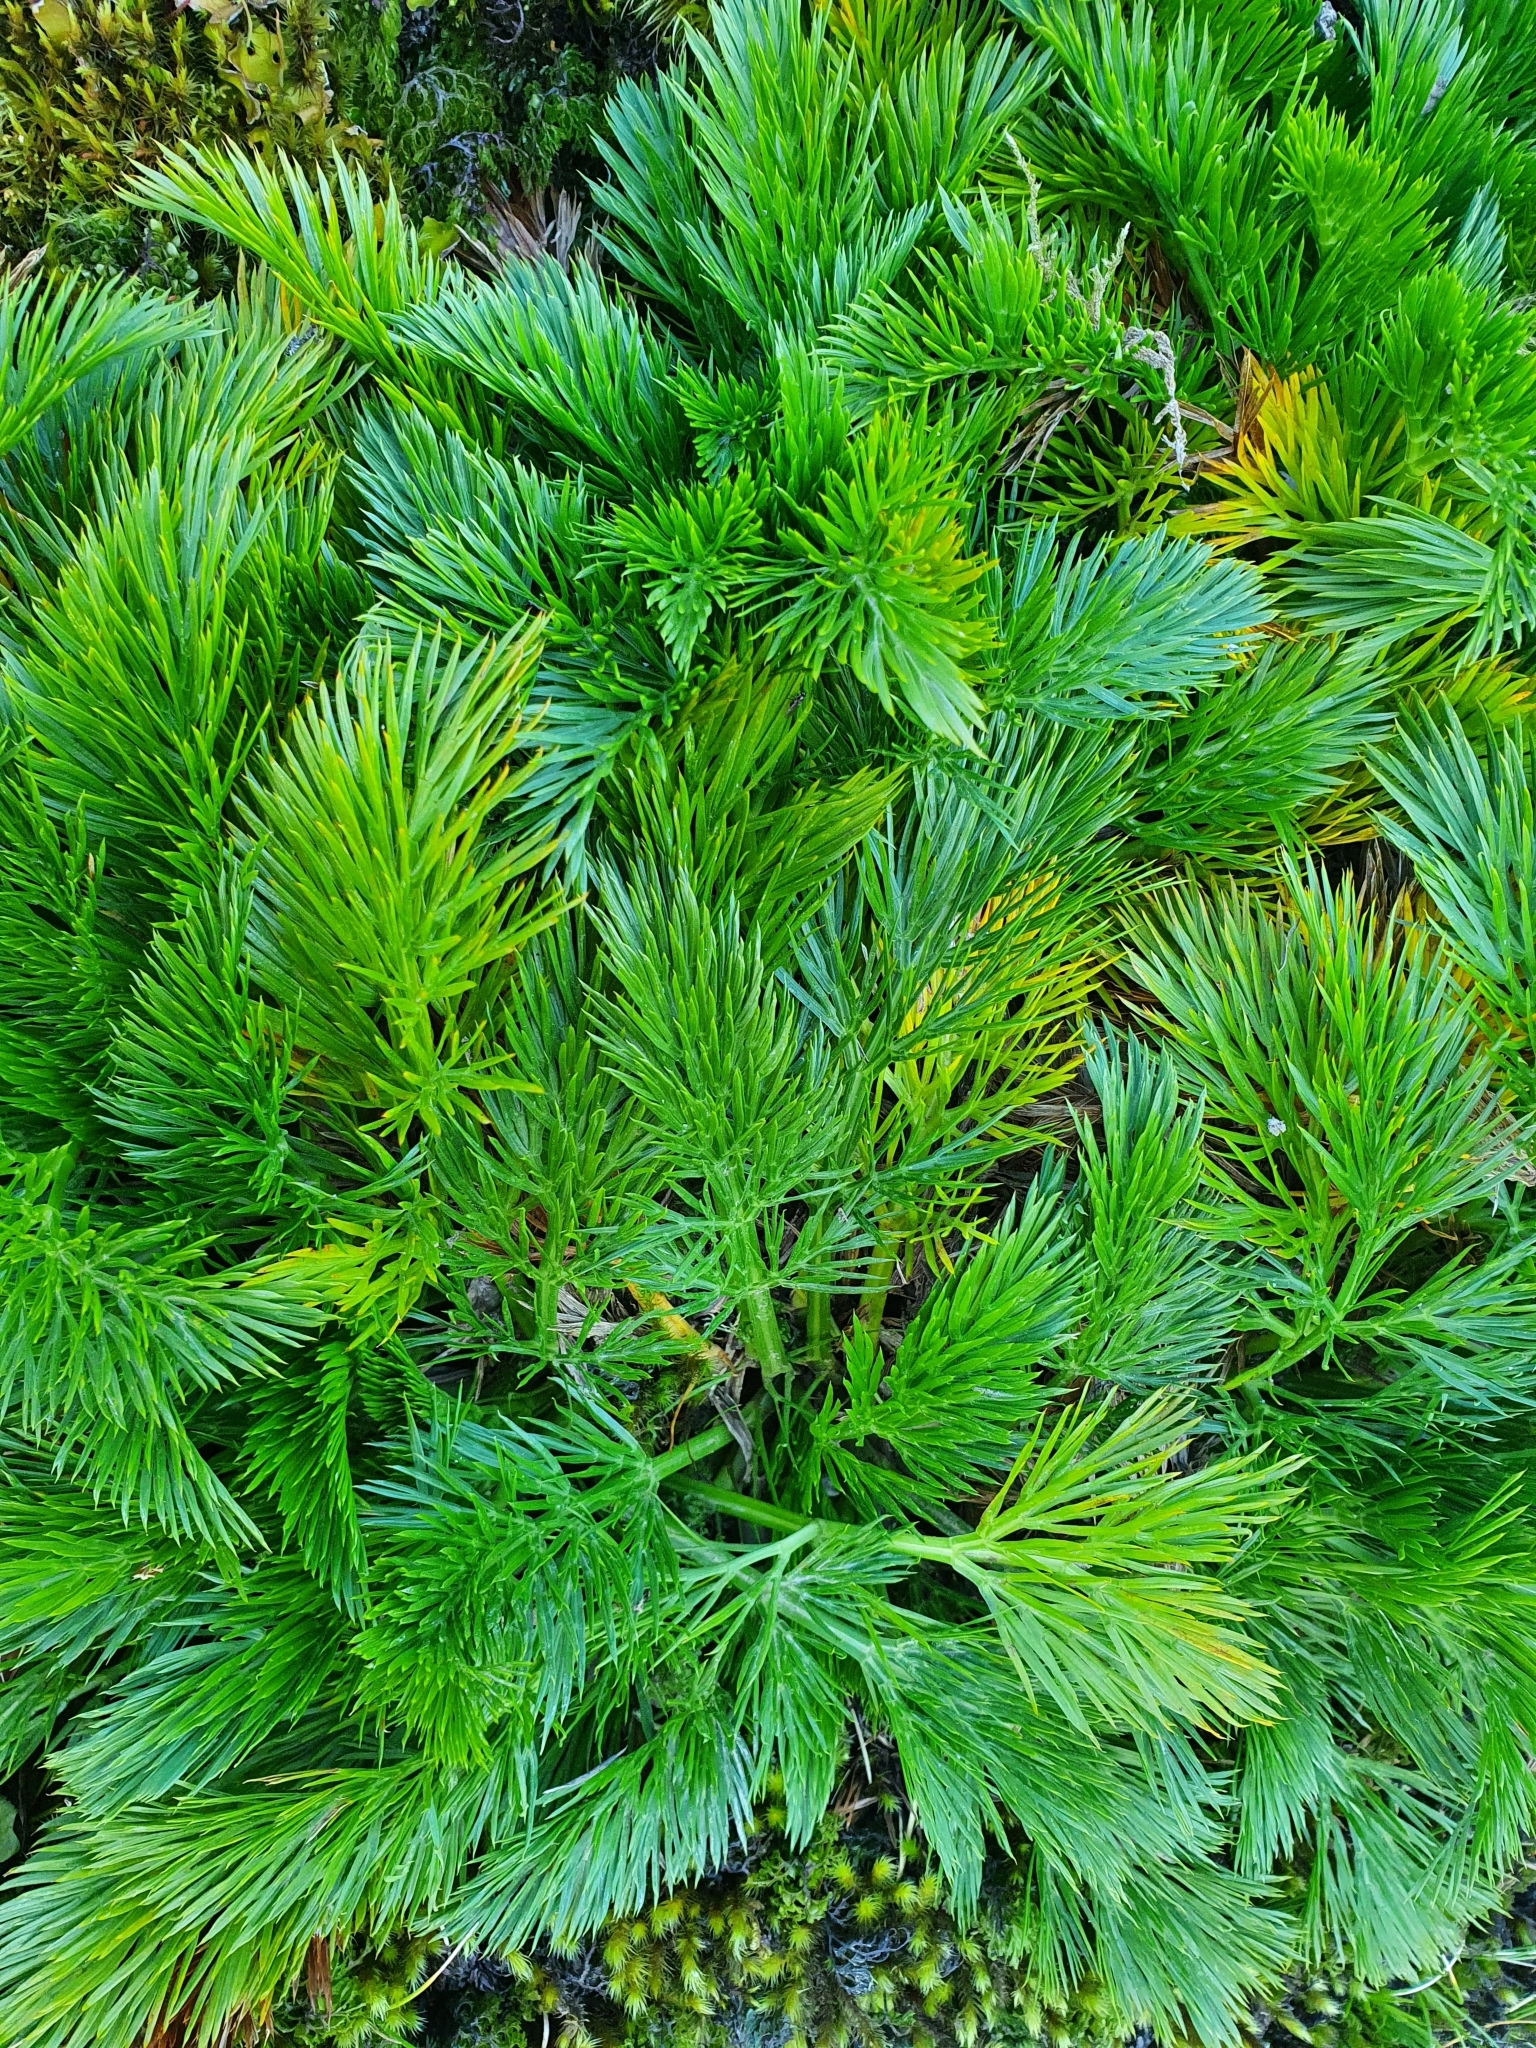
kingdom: Plantae
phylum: Tracheophyta
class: Magnoliopsida
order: Apiales
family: Apiaceae
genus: Aciphylla
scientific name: Aciphylla dissecta
